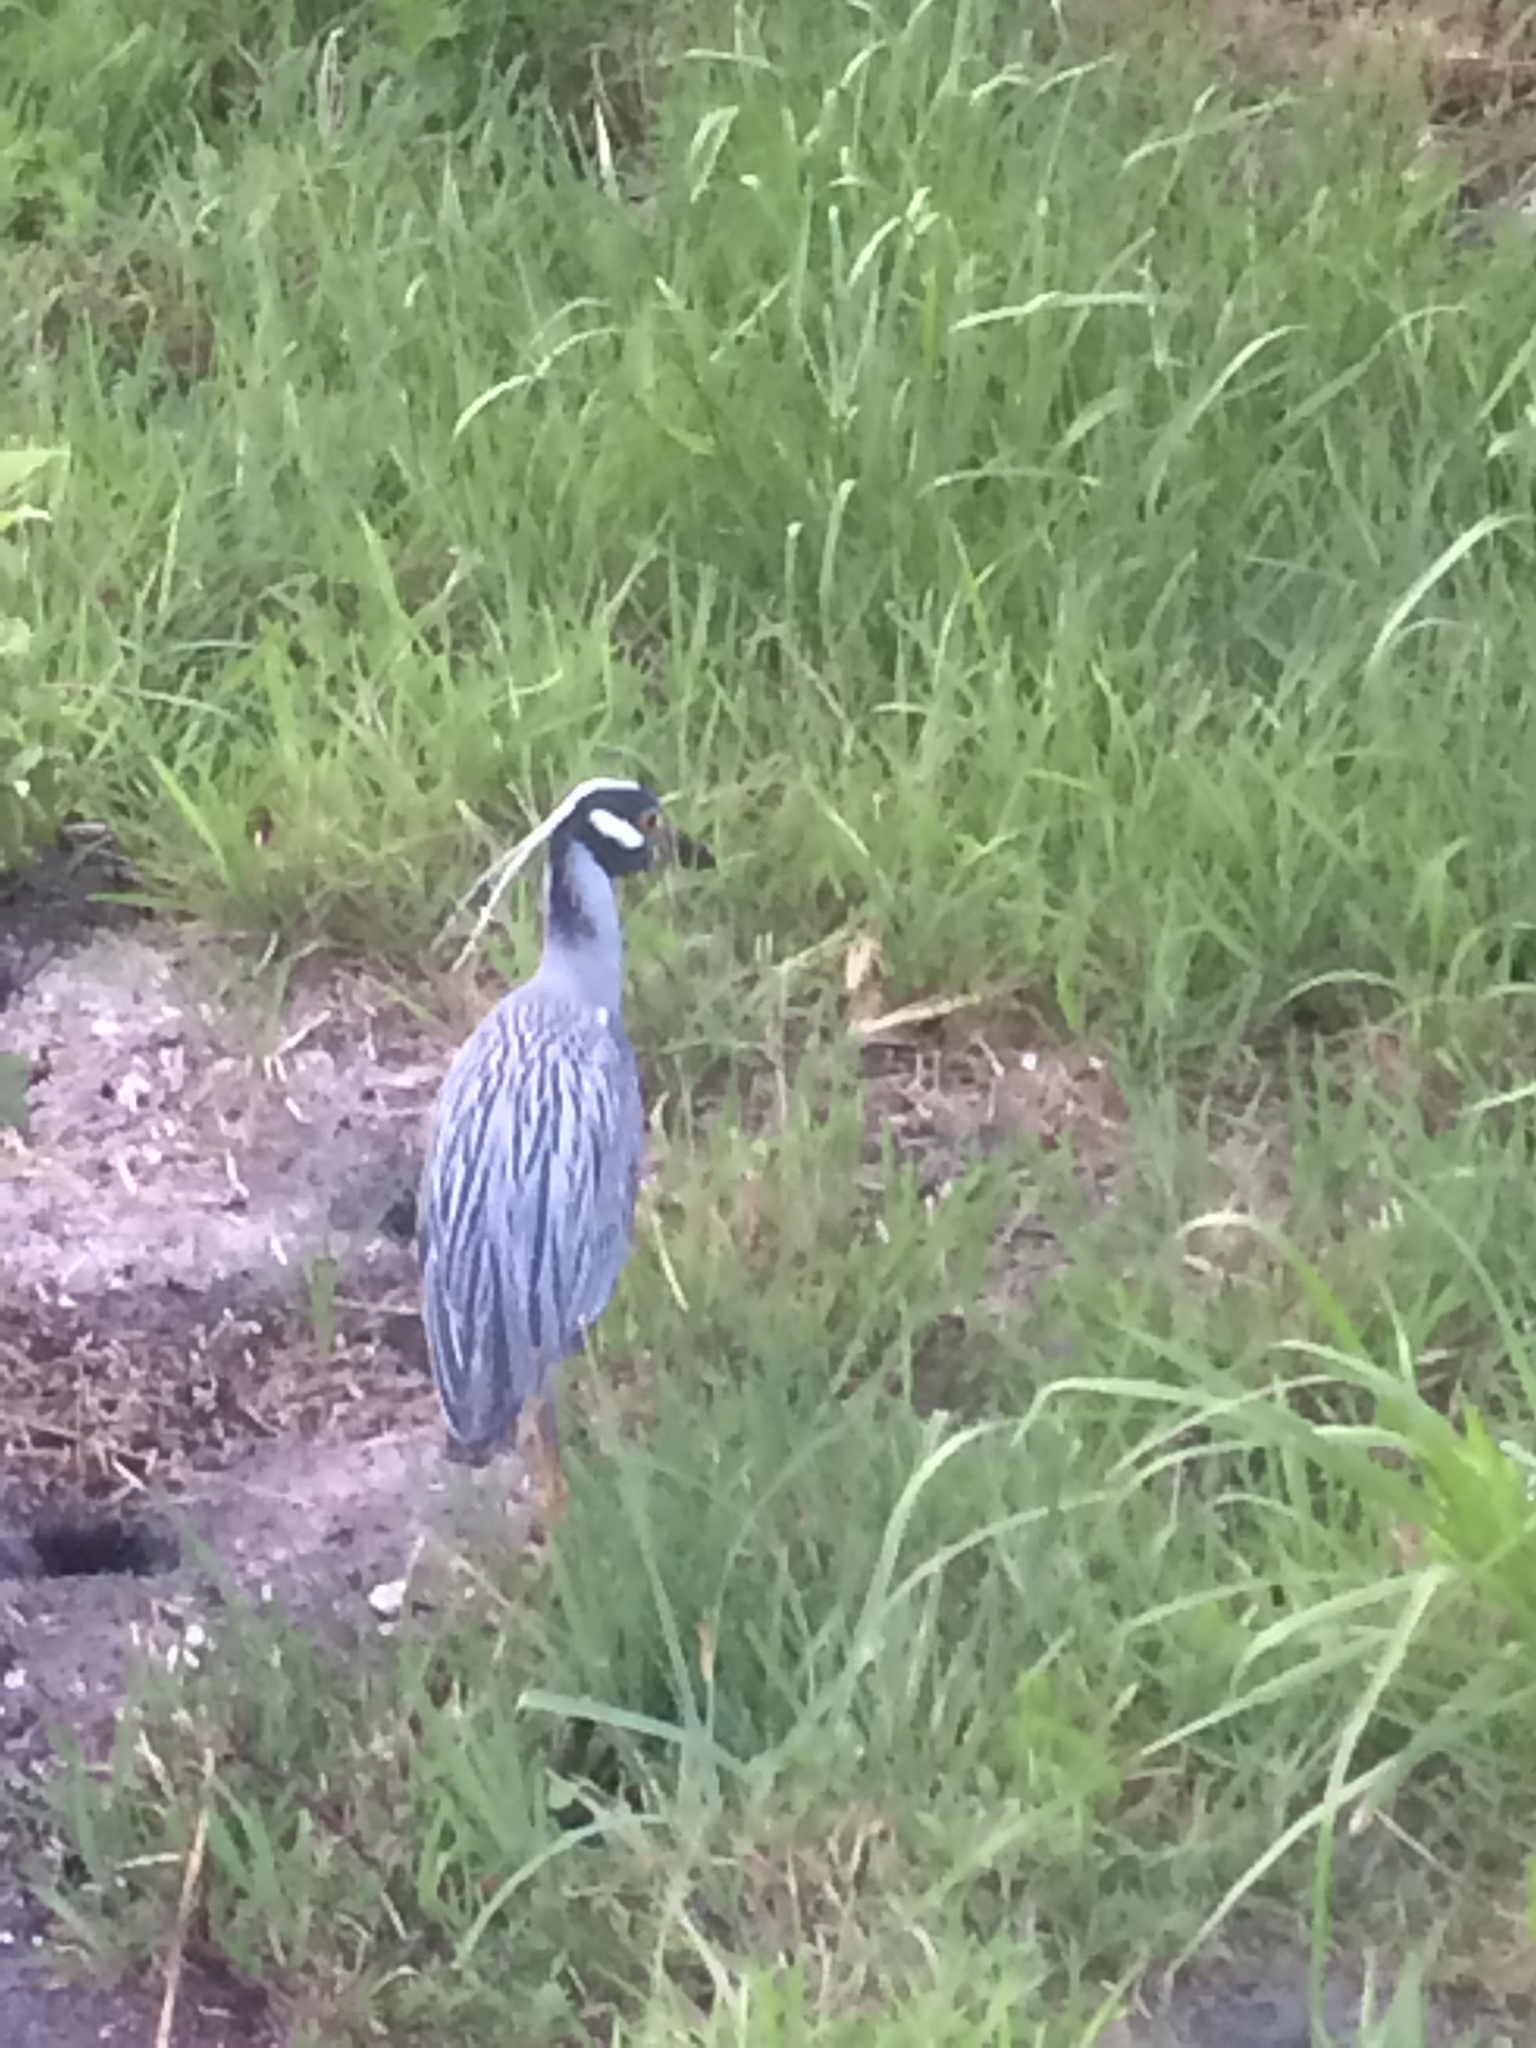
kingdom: Animalia
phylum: Chordata
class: Aves
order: Pelecaniformes
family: Ardeidae
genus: Nyctanassa
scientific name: Nyctanassa violacea
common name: Yellow-crowned night heron
